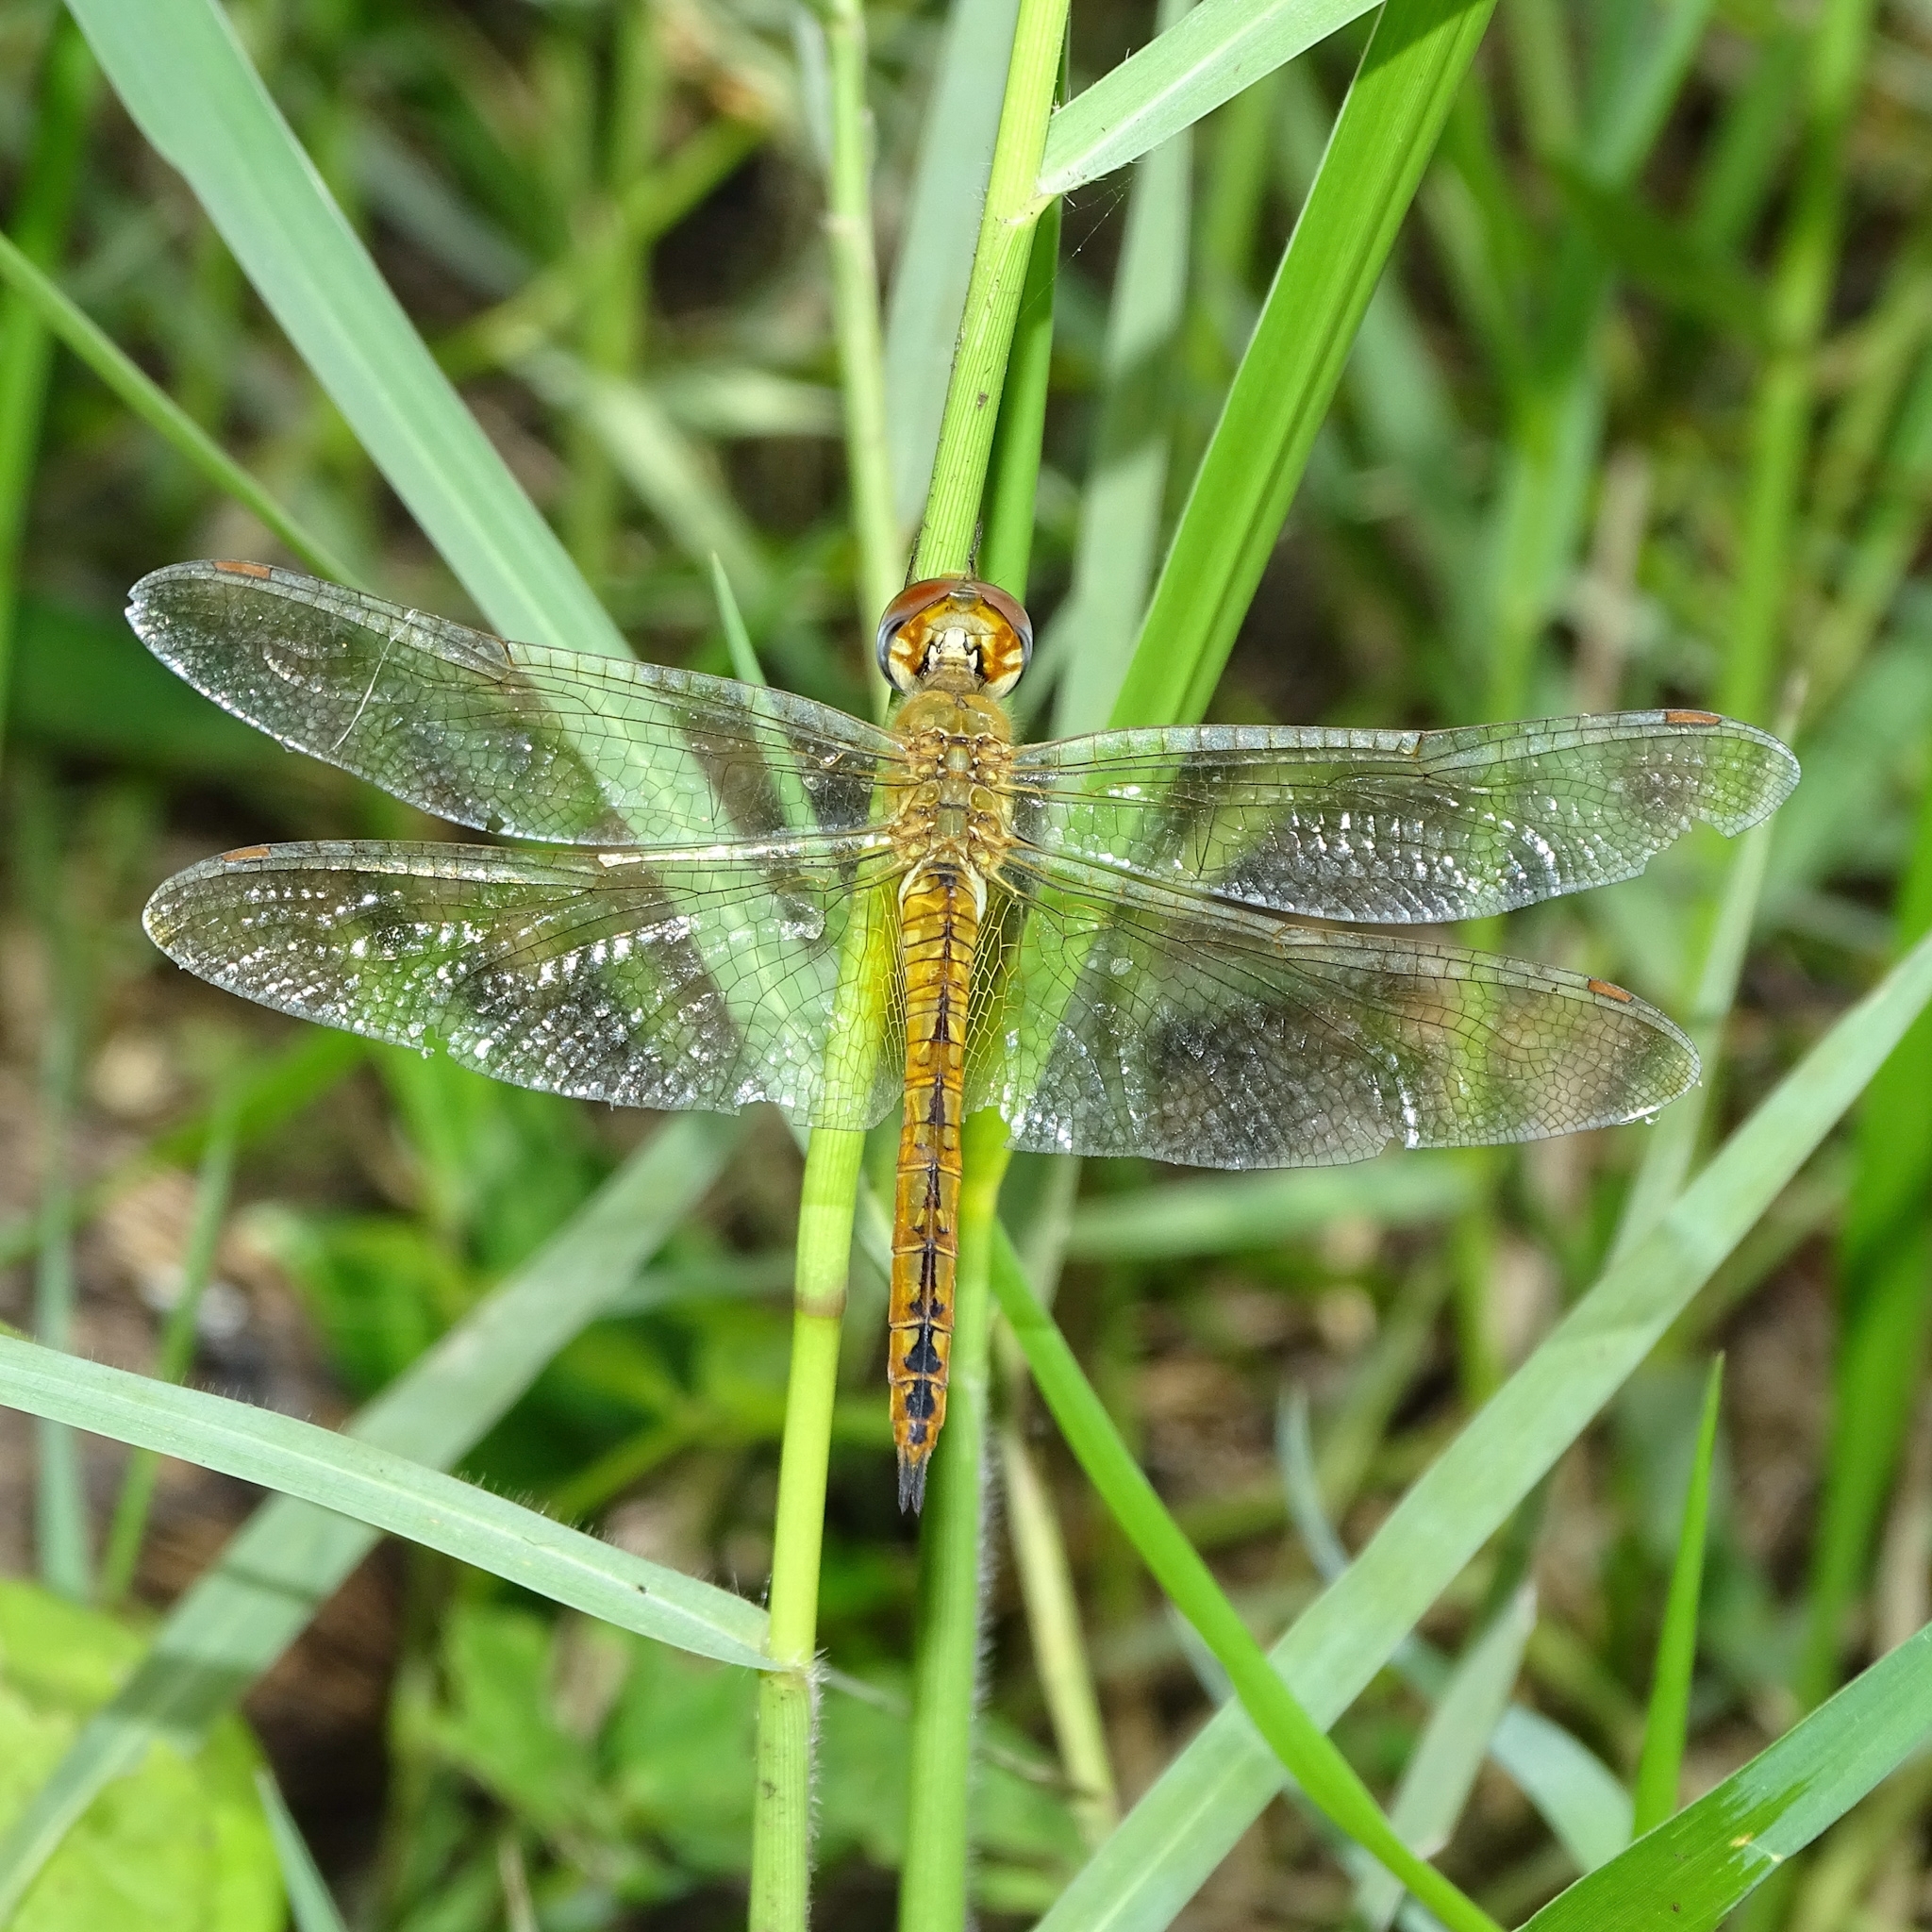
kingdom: Animalia
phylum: Arthropoda
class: Insecta
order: Odonata
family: Libellulidae
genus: Pantala
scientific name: Pantala flavescens
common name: Wandering glider
